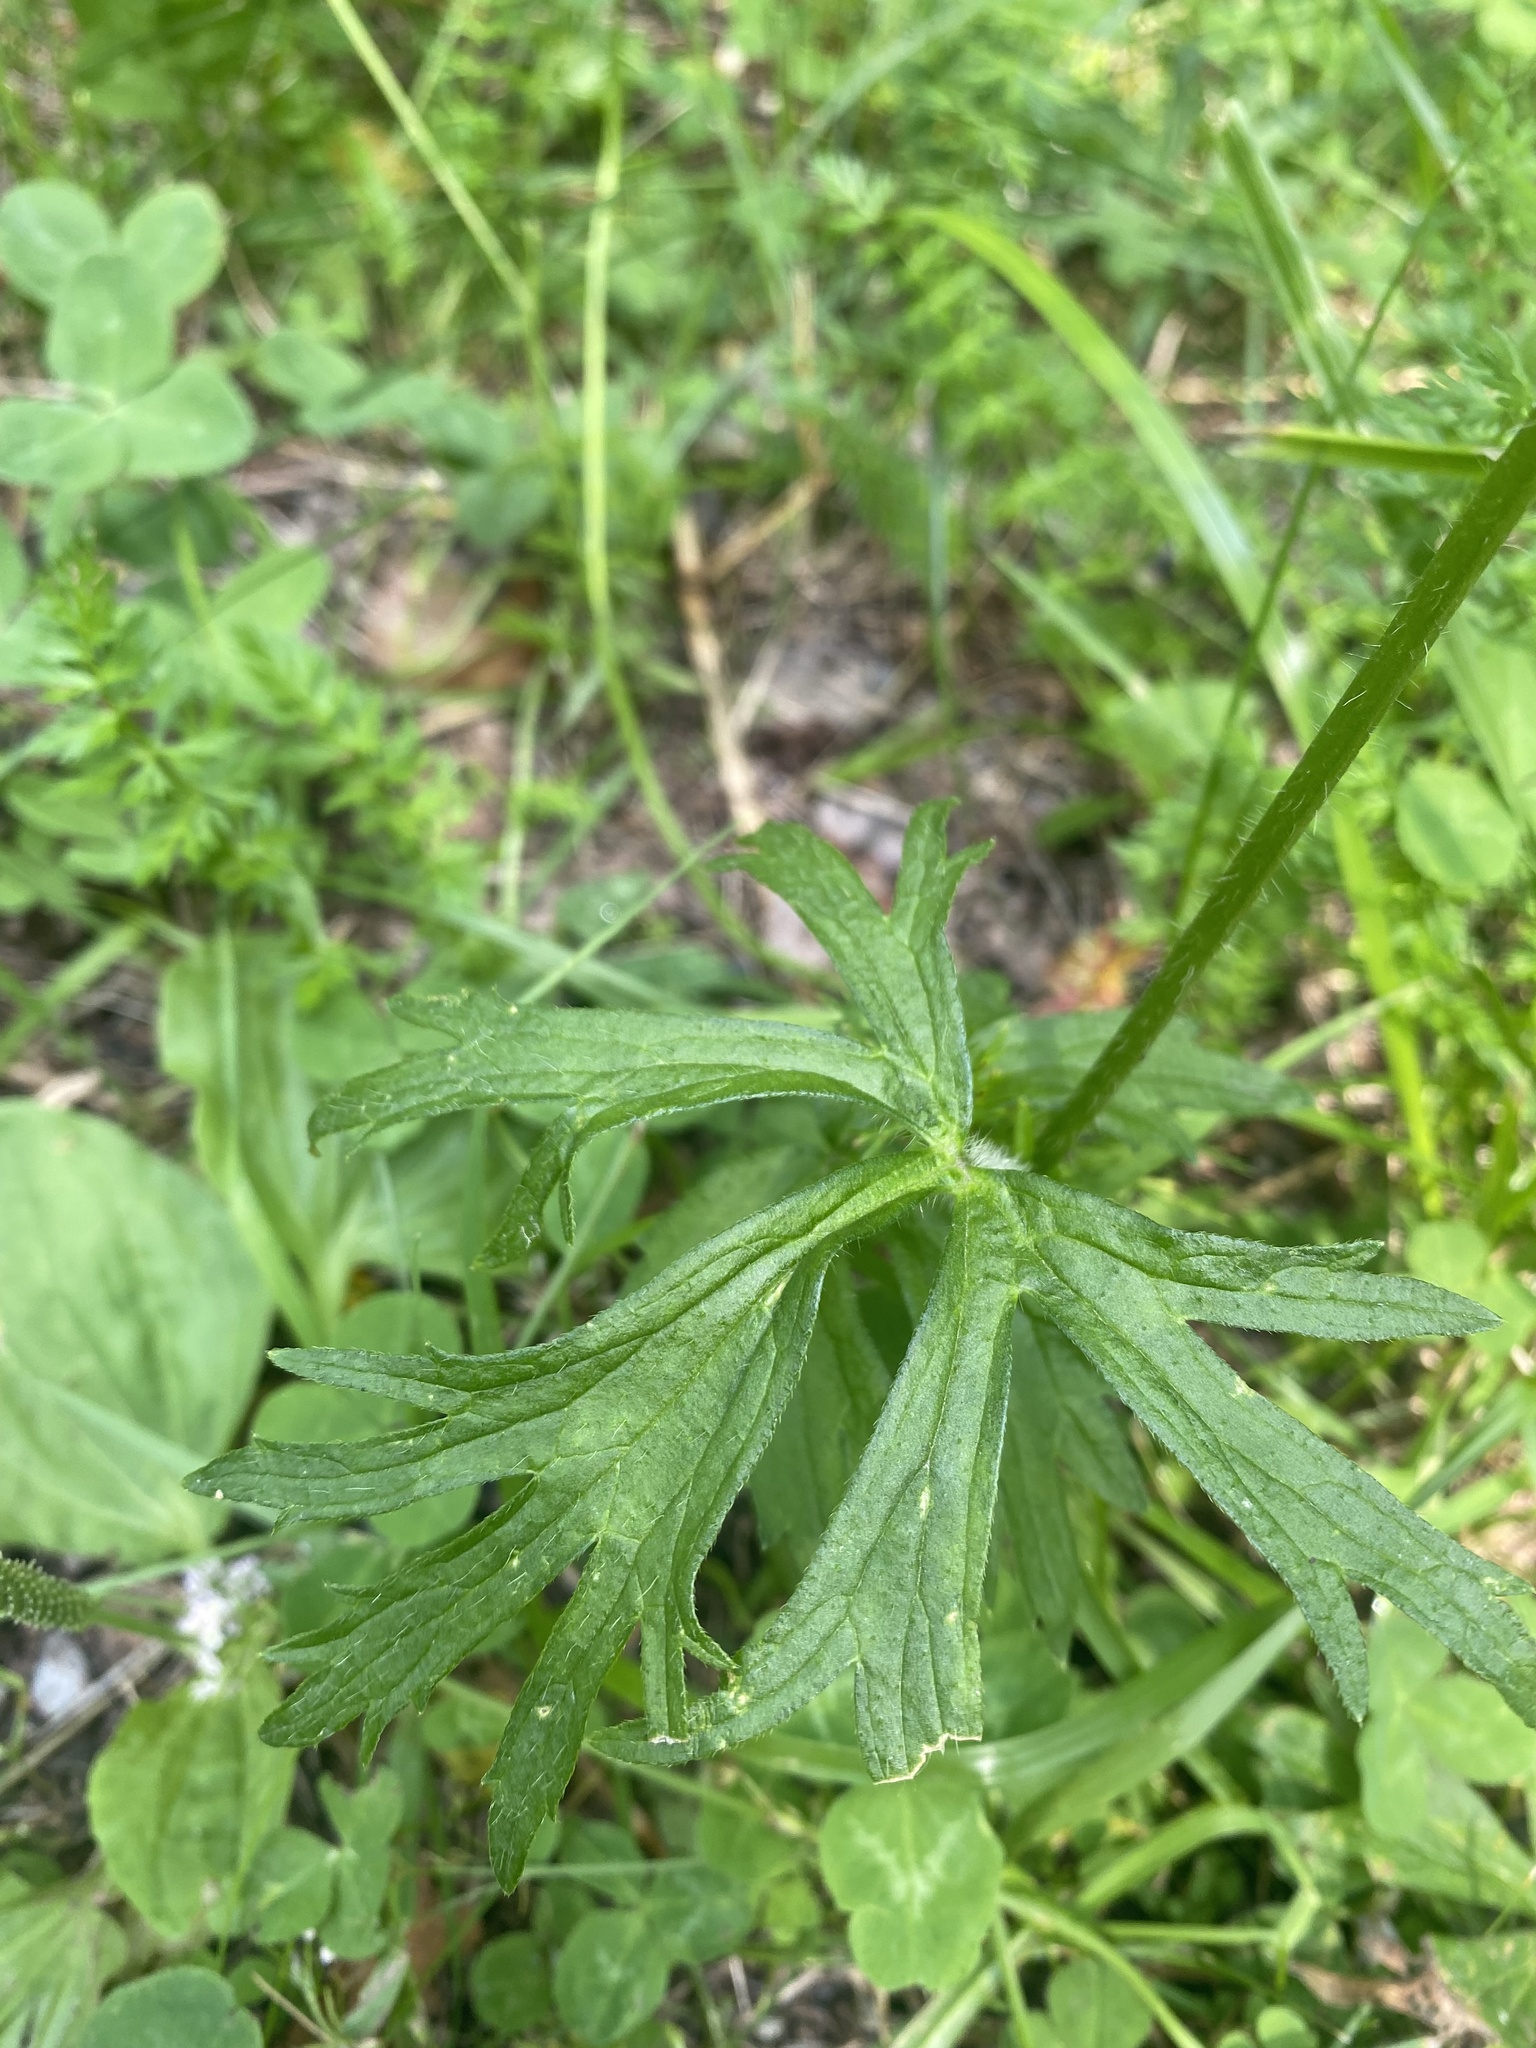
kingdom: Plantae
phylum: Tracheophyta
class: Magnoliopsida
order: Ranunculales
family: Ranunculaceae
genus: Ranunculus
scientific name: Ranunculus polyanthemos
